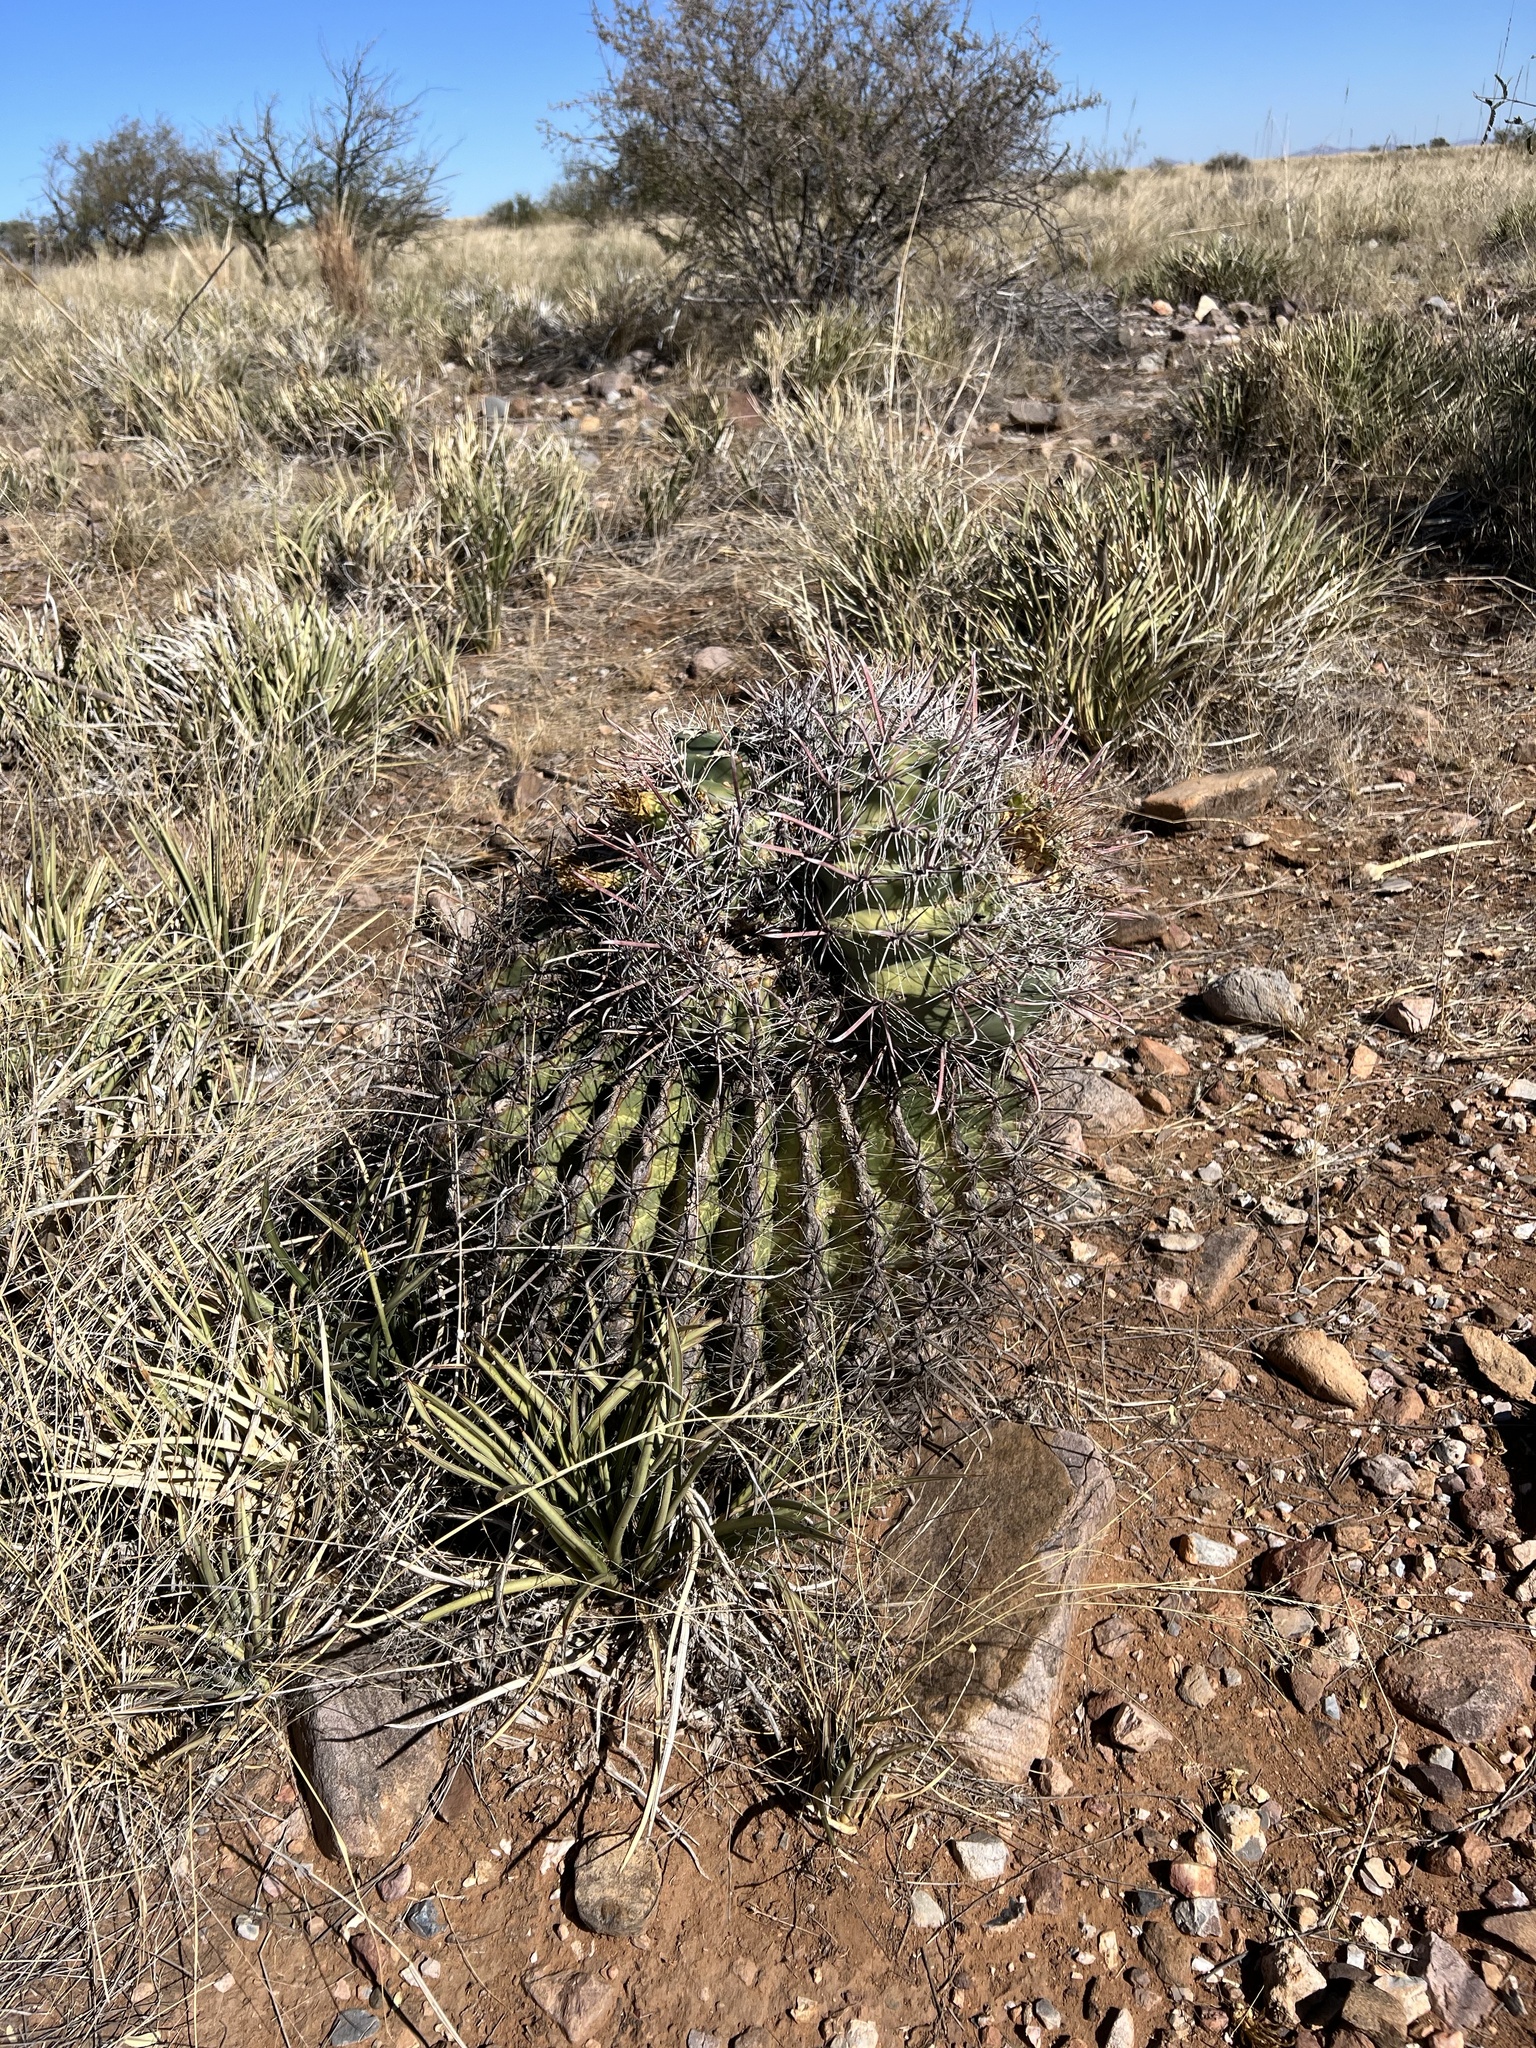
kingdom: Plantae
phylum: Tracheophyta
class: Magnoliopsida
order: Caryophyllales
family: Cactaceae
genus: Ferocactus
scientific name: Ferocactus wislizeni
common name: Candy barrel cactus
